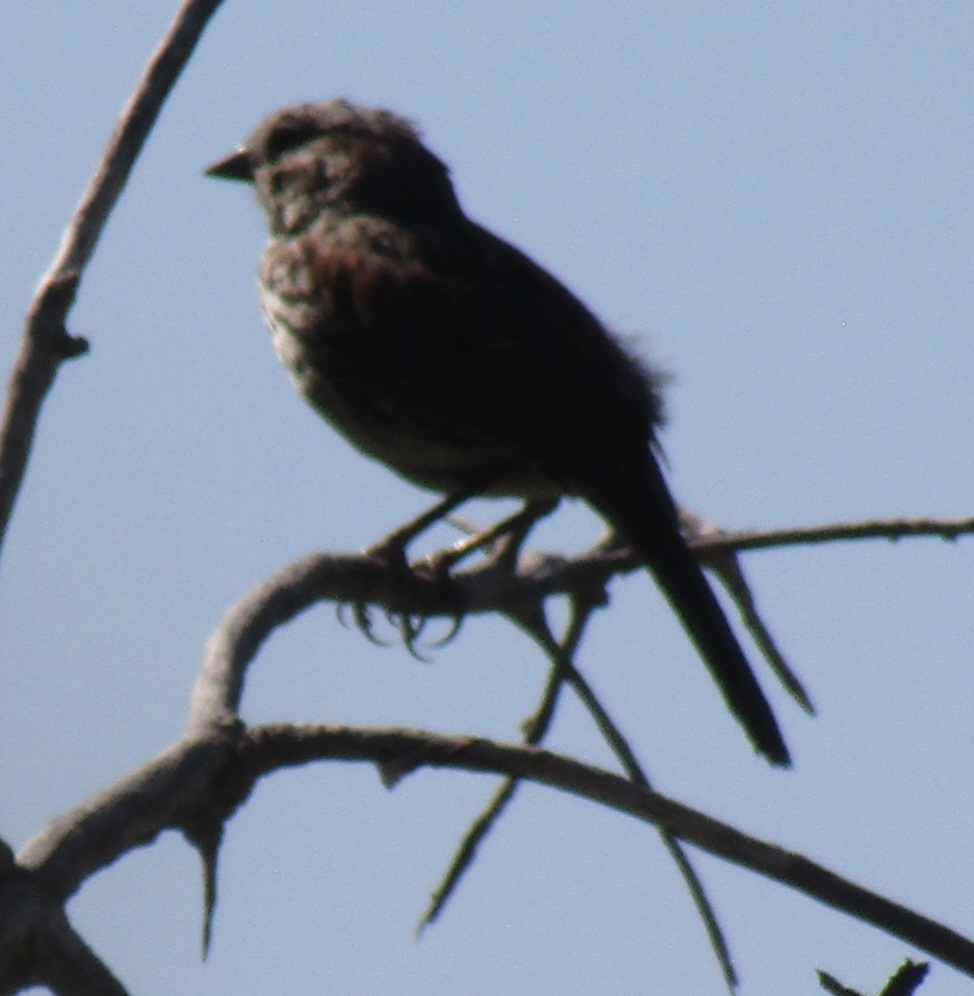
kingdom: Animalia
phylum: Chordata
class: Aves
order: Passeriformes
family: Passerellidae
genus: Melospiza
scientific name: Melospiza melodia
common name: Song sparrow
